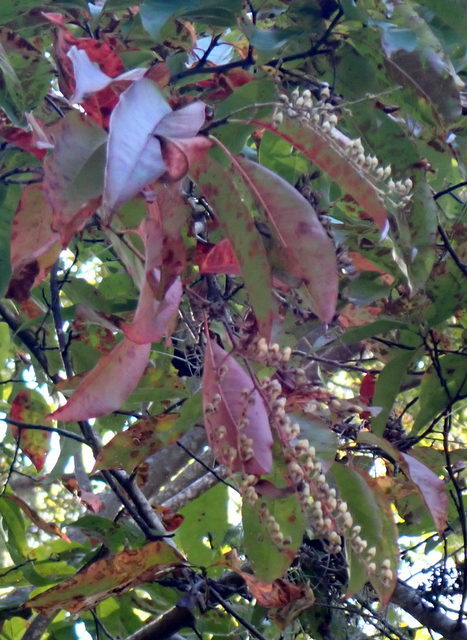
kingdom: Plantae
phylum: Tracheophyta
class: Magnoliopsida
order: Ericales
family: Ericaceae
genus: Oxydendrum
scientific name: Oxydendrum arboreum
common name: Sourwood
